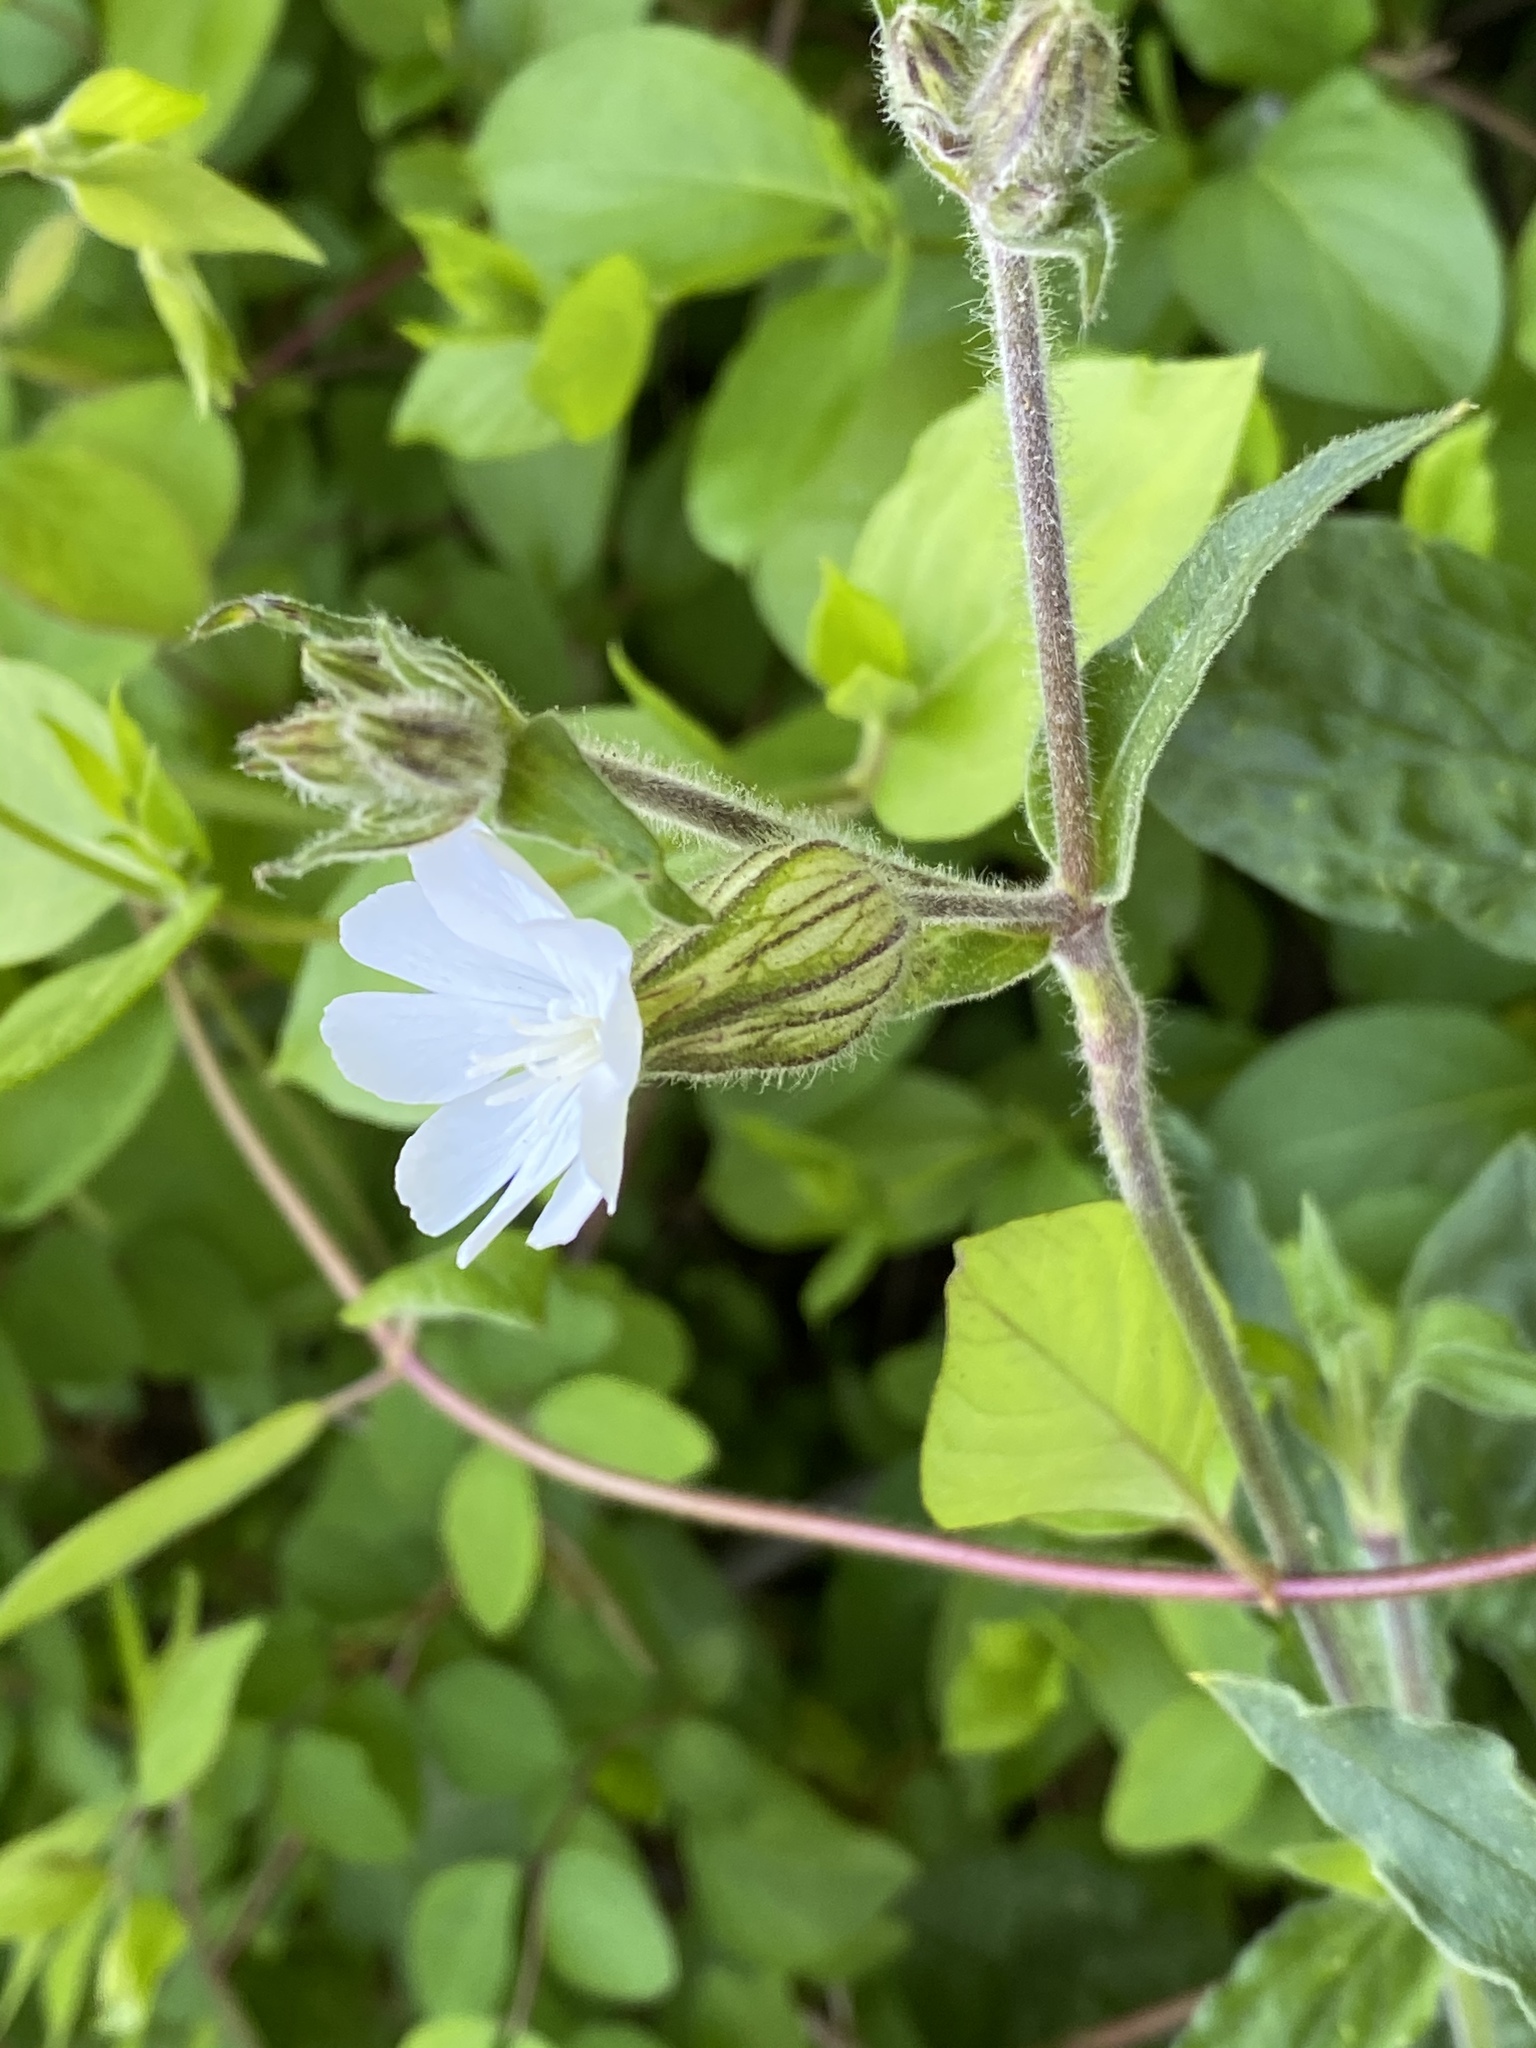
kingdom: Plantae
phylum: Tracheophyta
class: Magnoliopsida
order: Caryophyllales
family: Caryophyllaceae
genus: Silene
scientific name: Silene latifolia
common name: White campion
